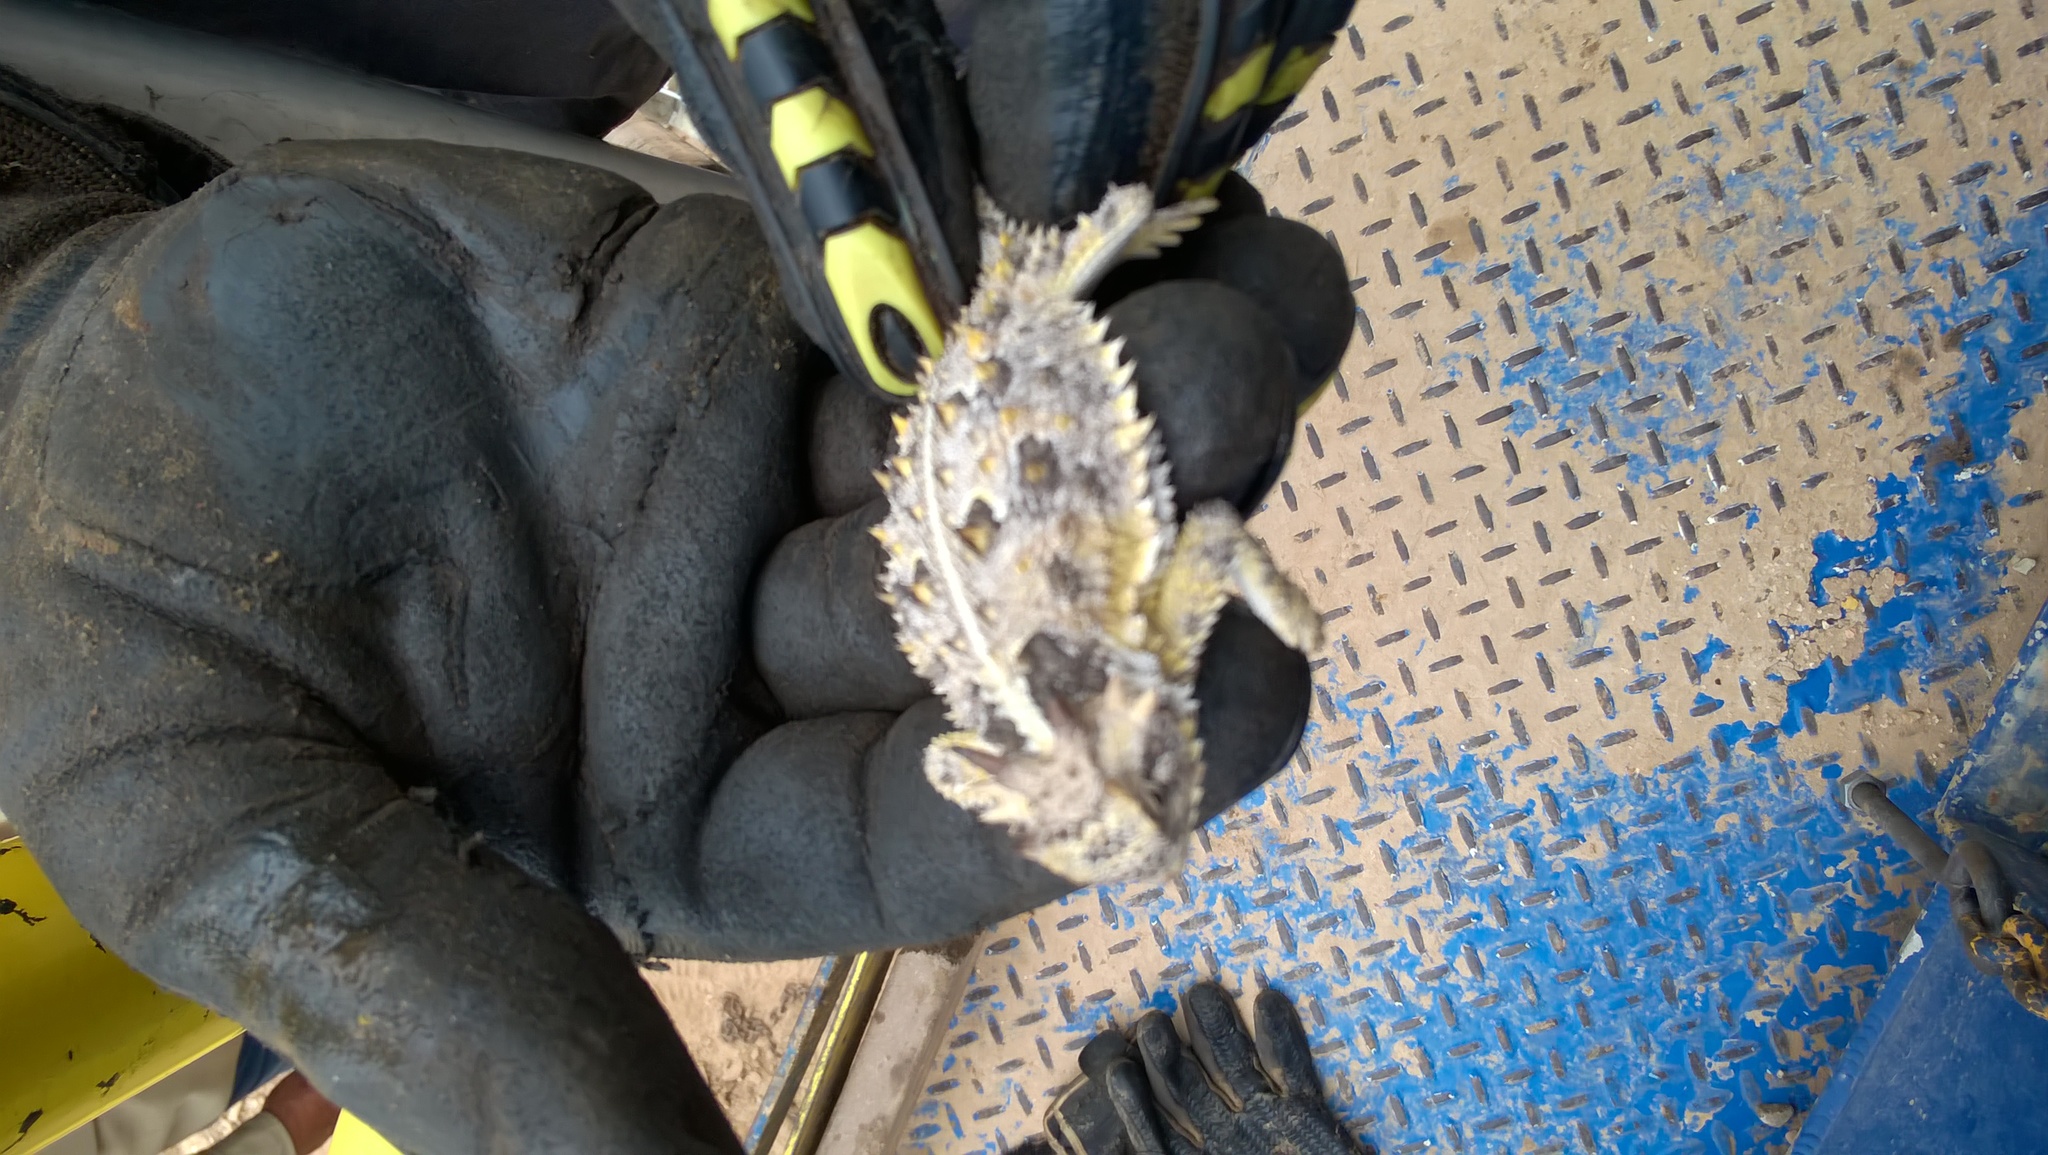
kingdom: Animalia
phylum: Chordata
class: Squamata
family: Phrynosomatidae
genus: Phrynosoma
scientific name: Phrynosoma cornutum
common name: Texas horned lizard
